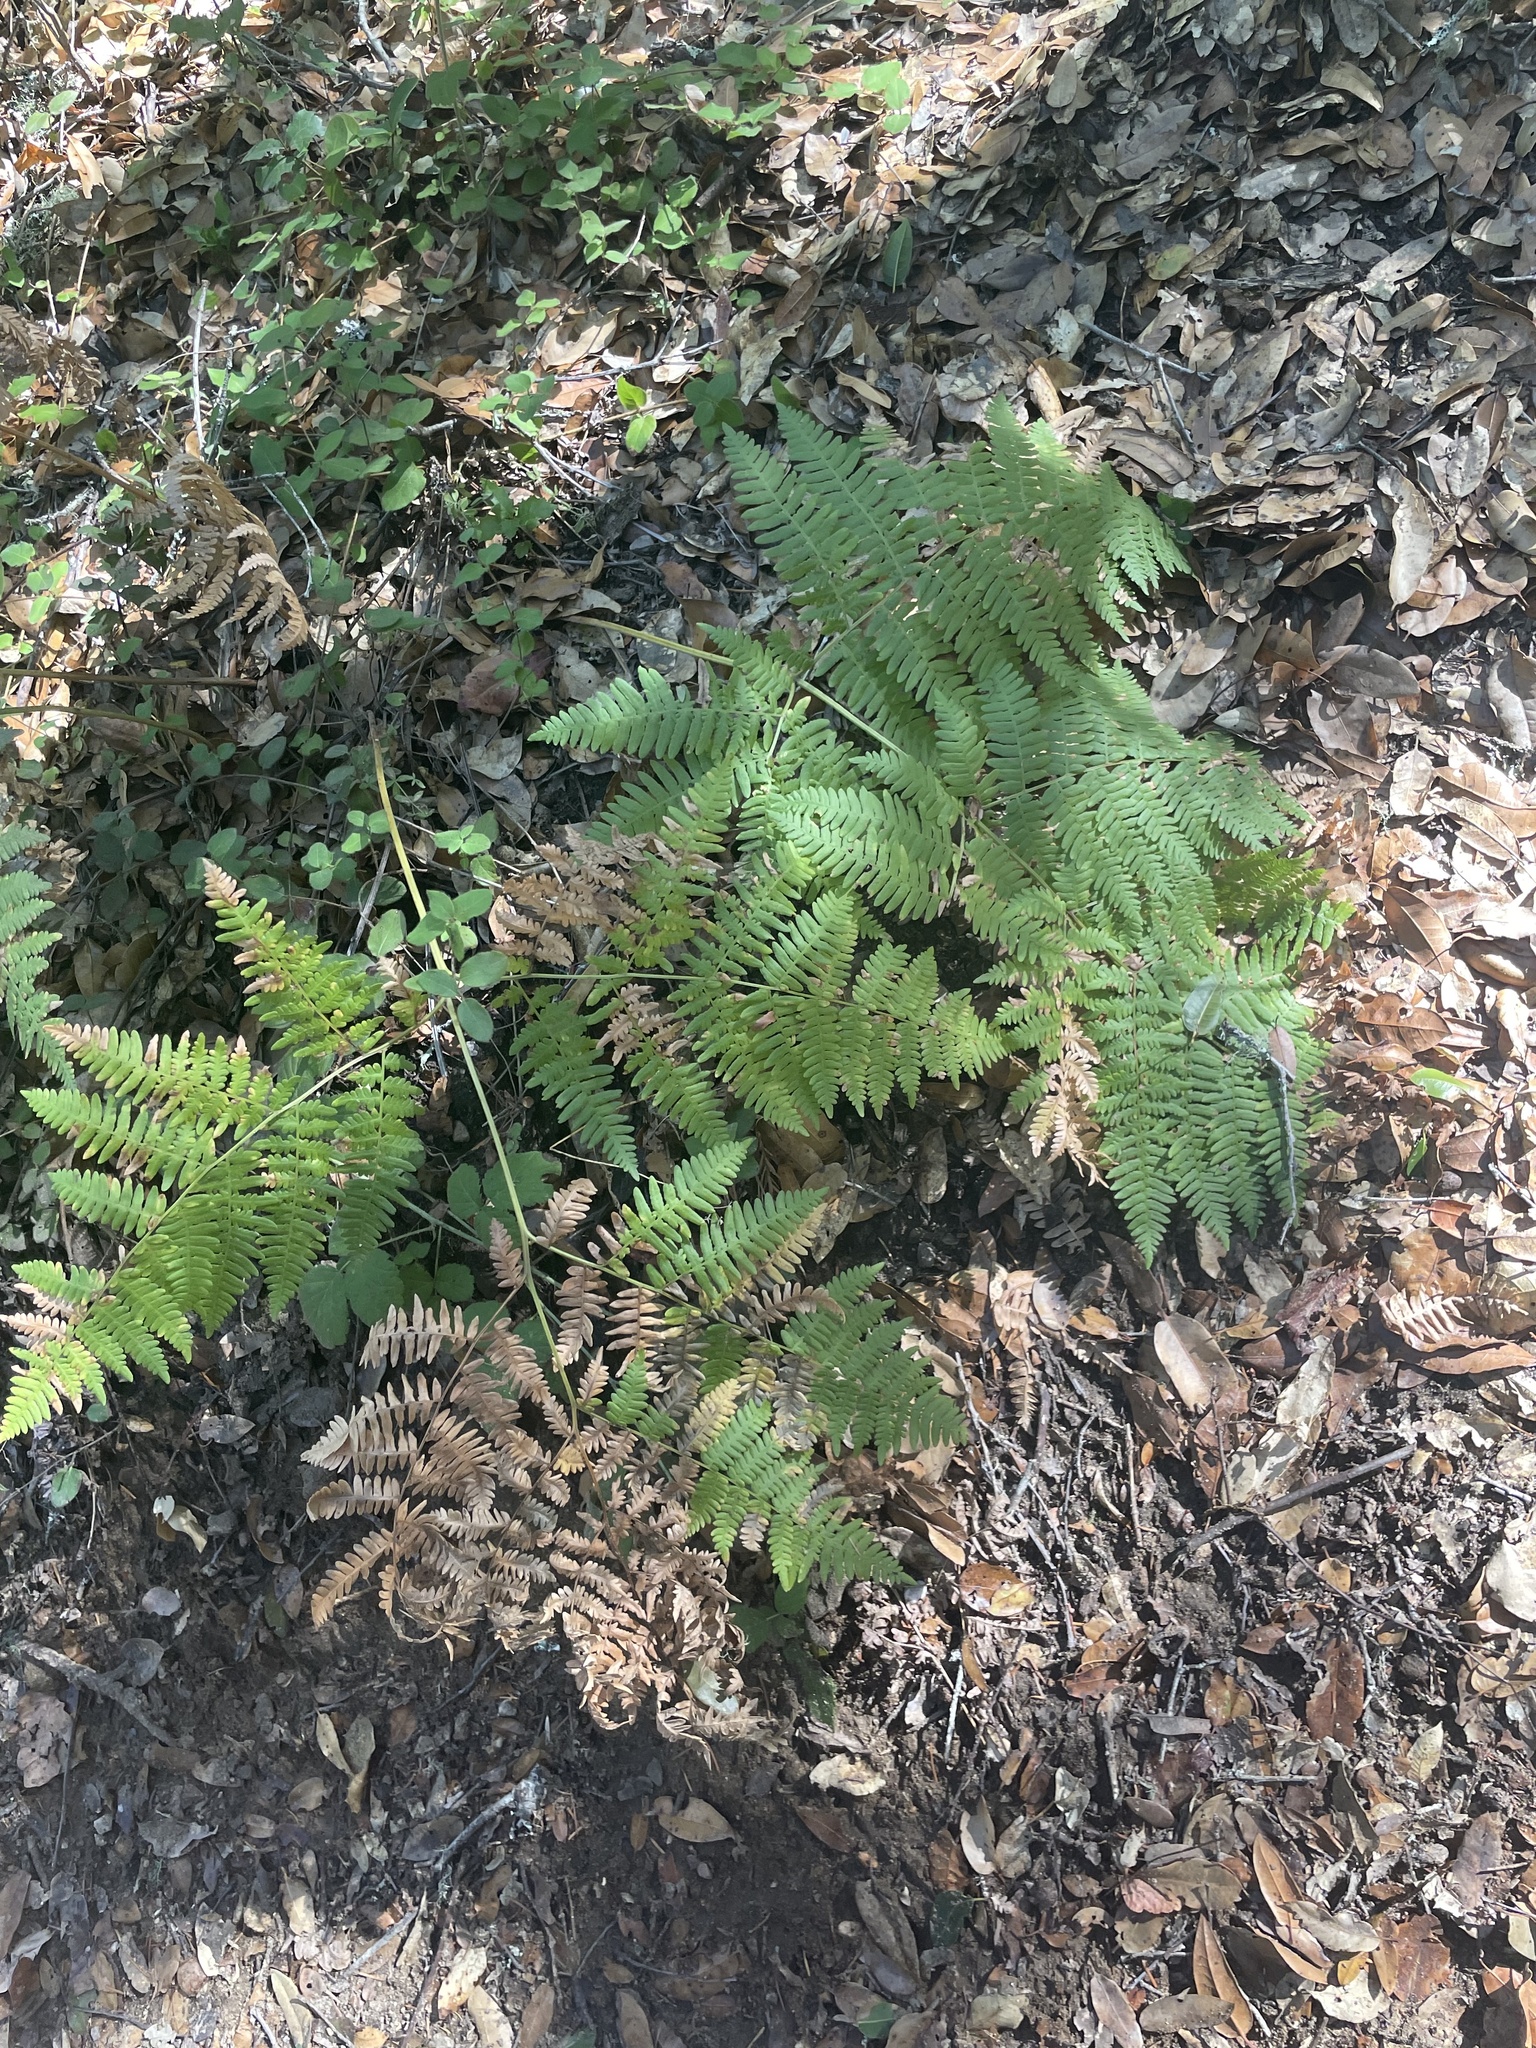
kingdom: Plantae
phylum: Tracheophyta
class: Polypodiopsida
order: Polypodiales
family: Dennstaedtiaceae
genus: Pteridium
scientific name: Pteridium aquilinum
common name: Bracken
